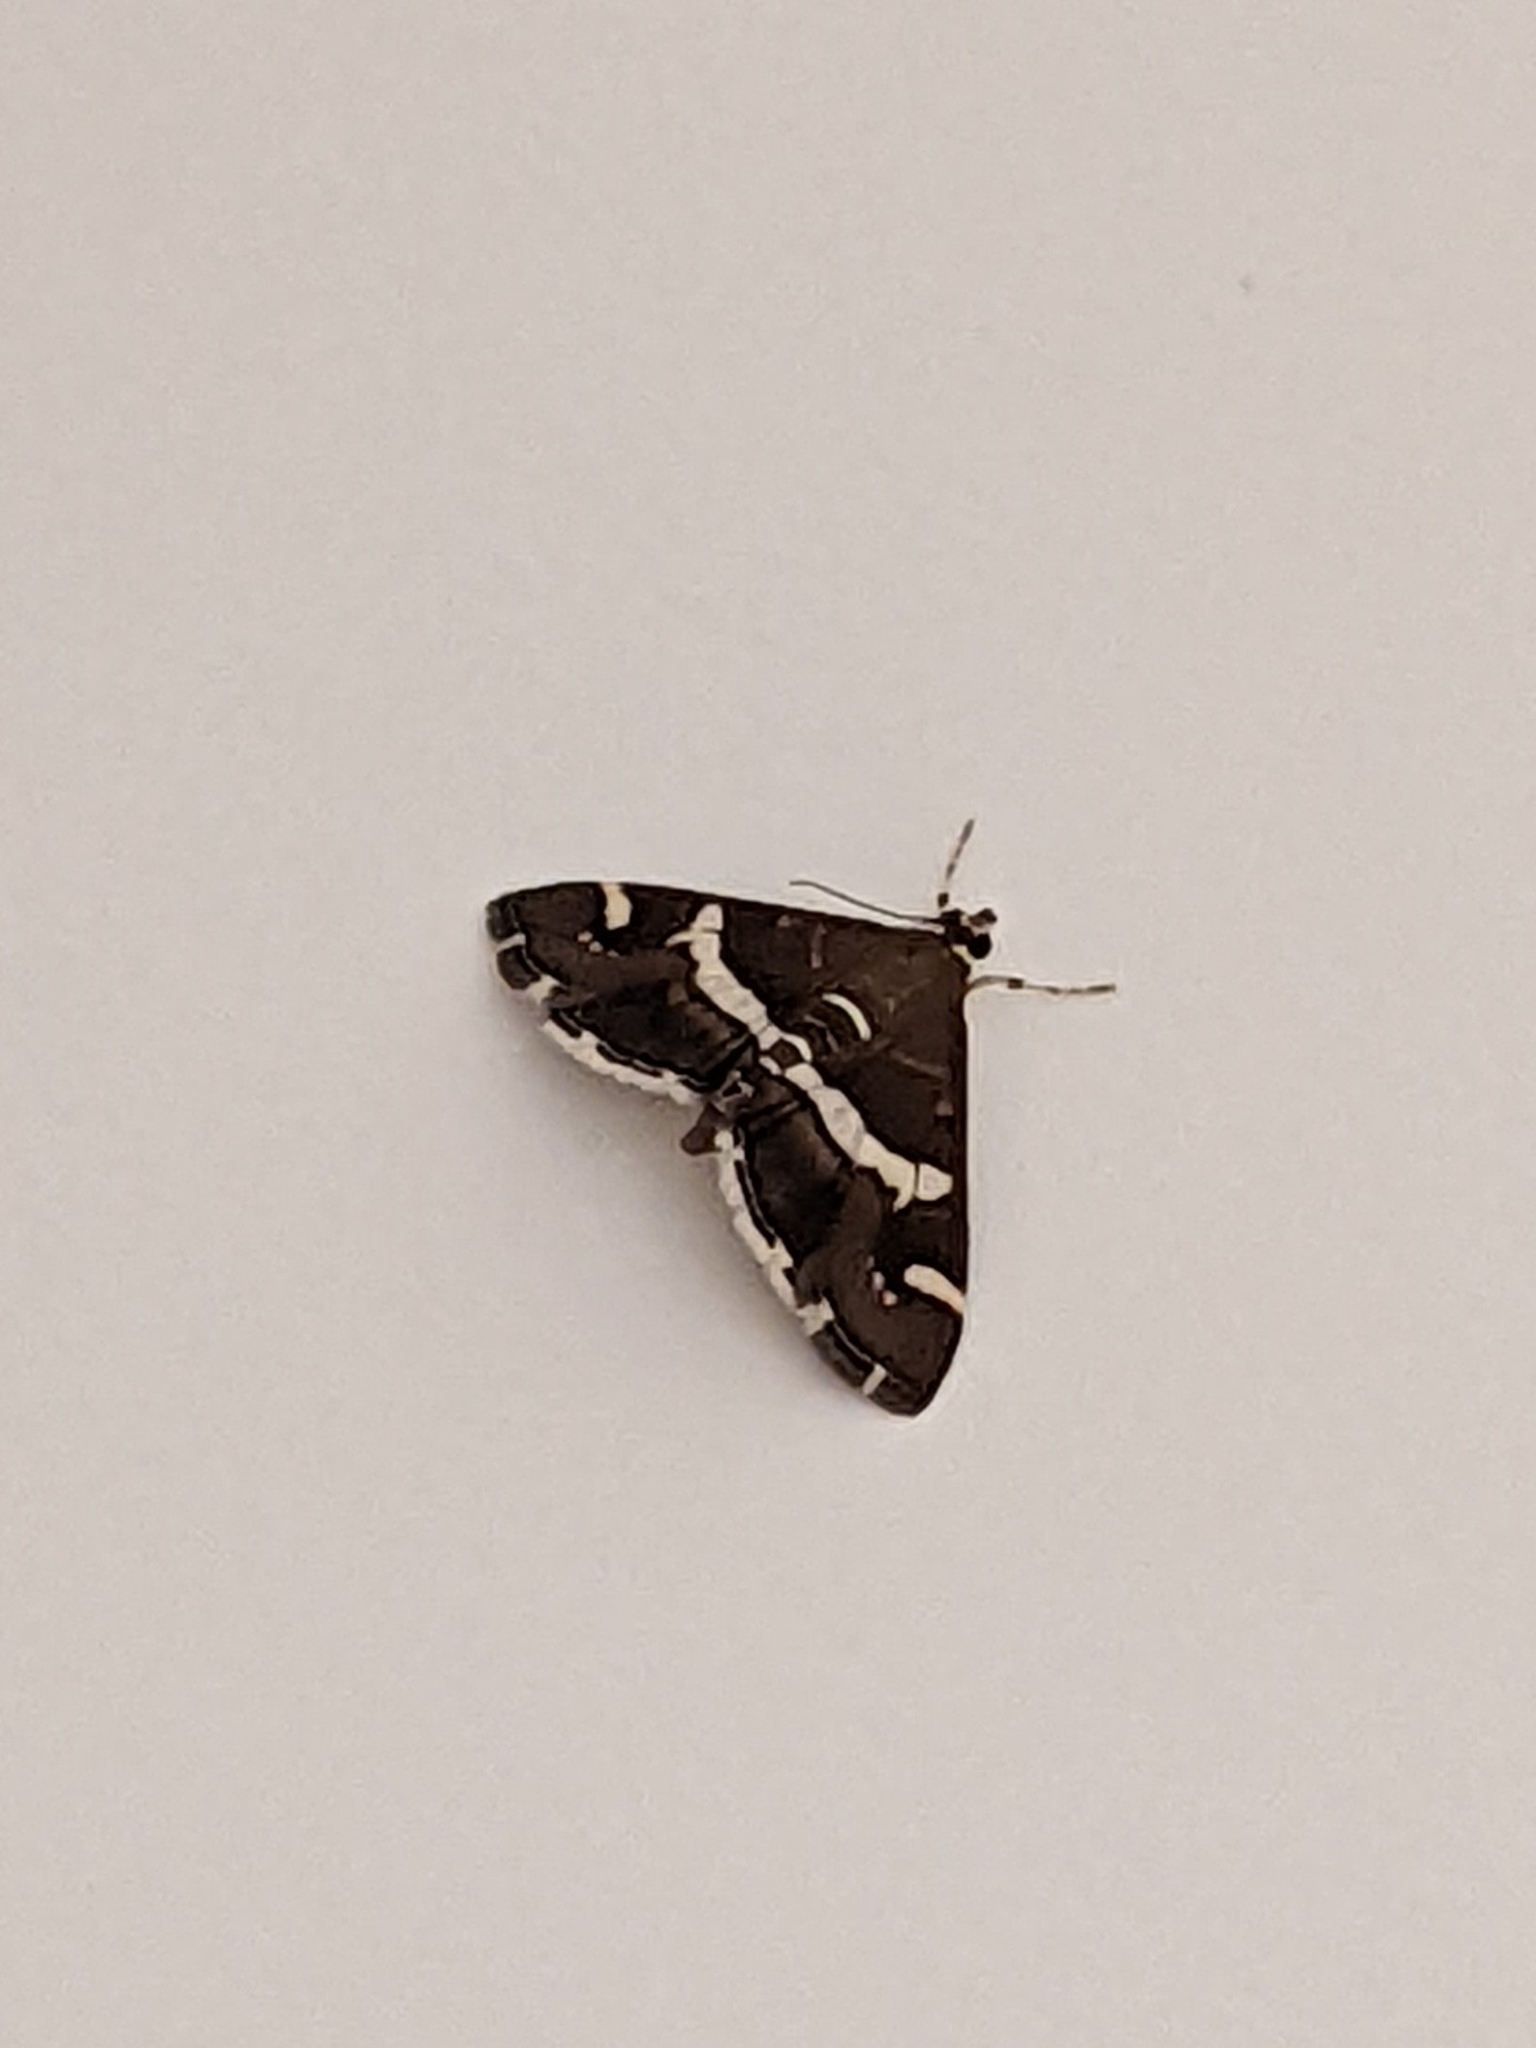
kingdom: Animalia
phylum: Arthropoda
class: Insecta
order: Lepidoptera
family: Crambidae
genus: Spoladea
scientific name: Spoladea recurvalis
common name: Beet webworm moth
